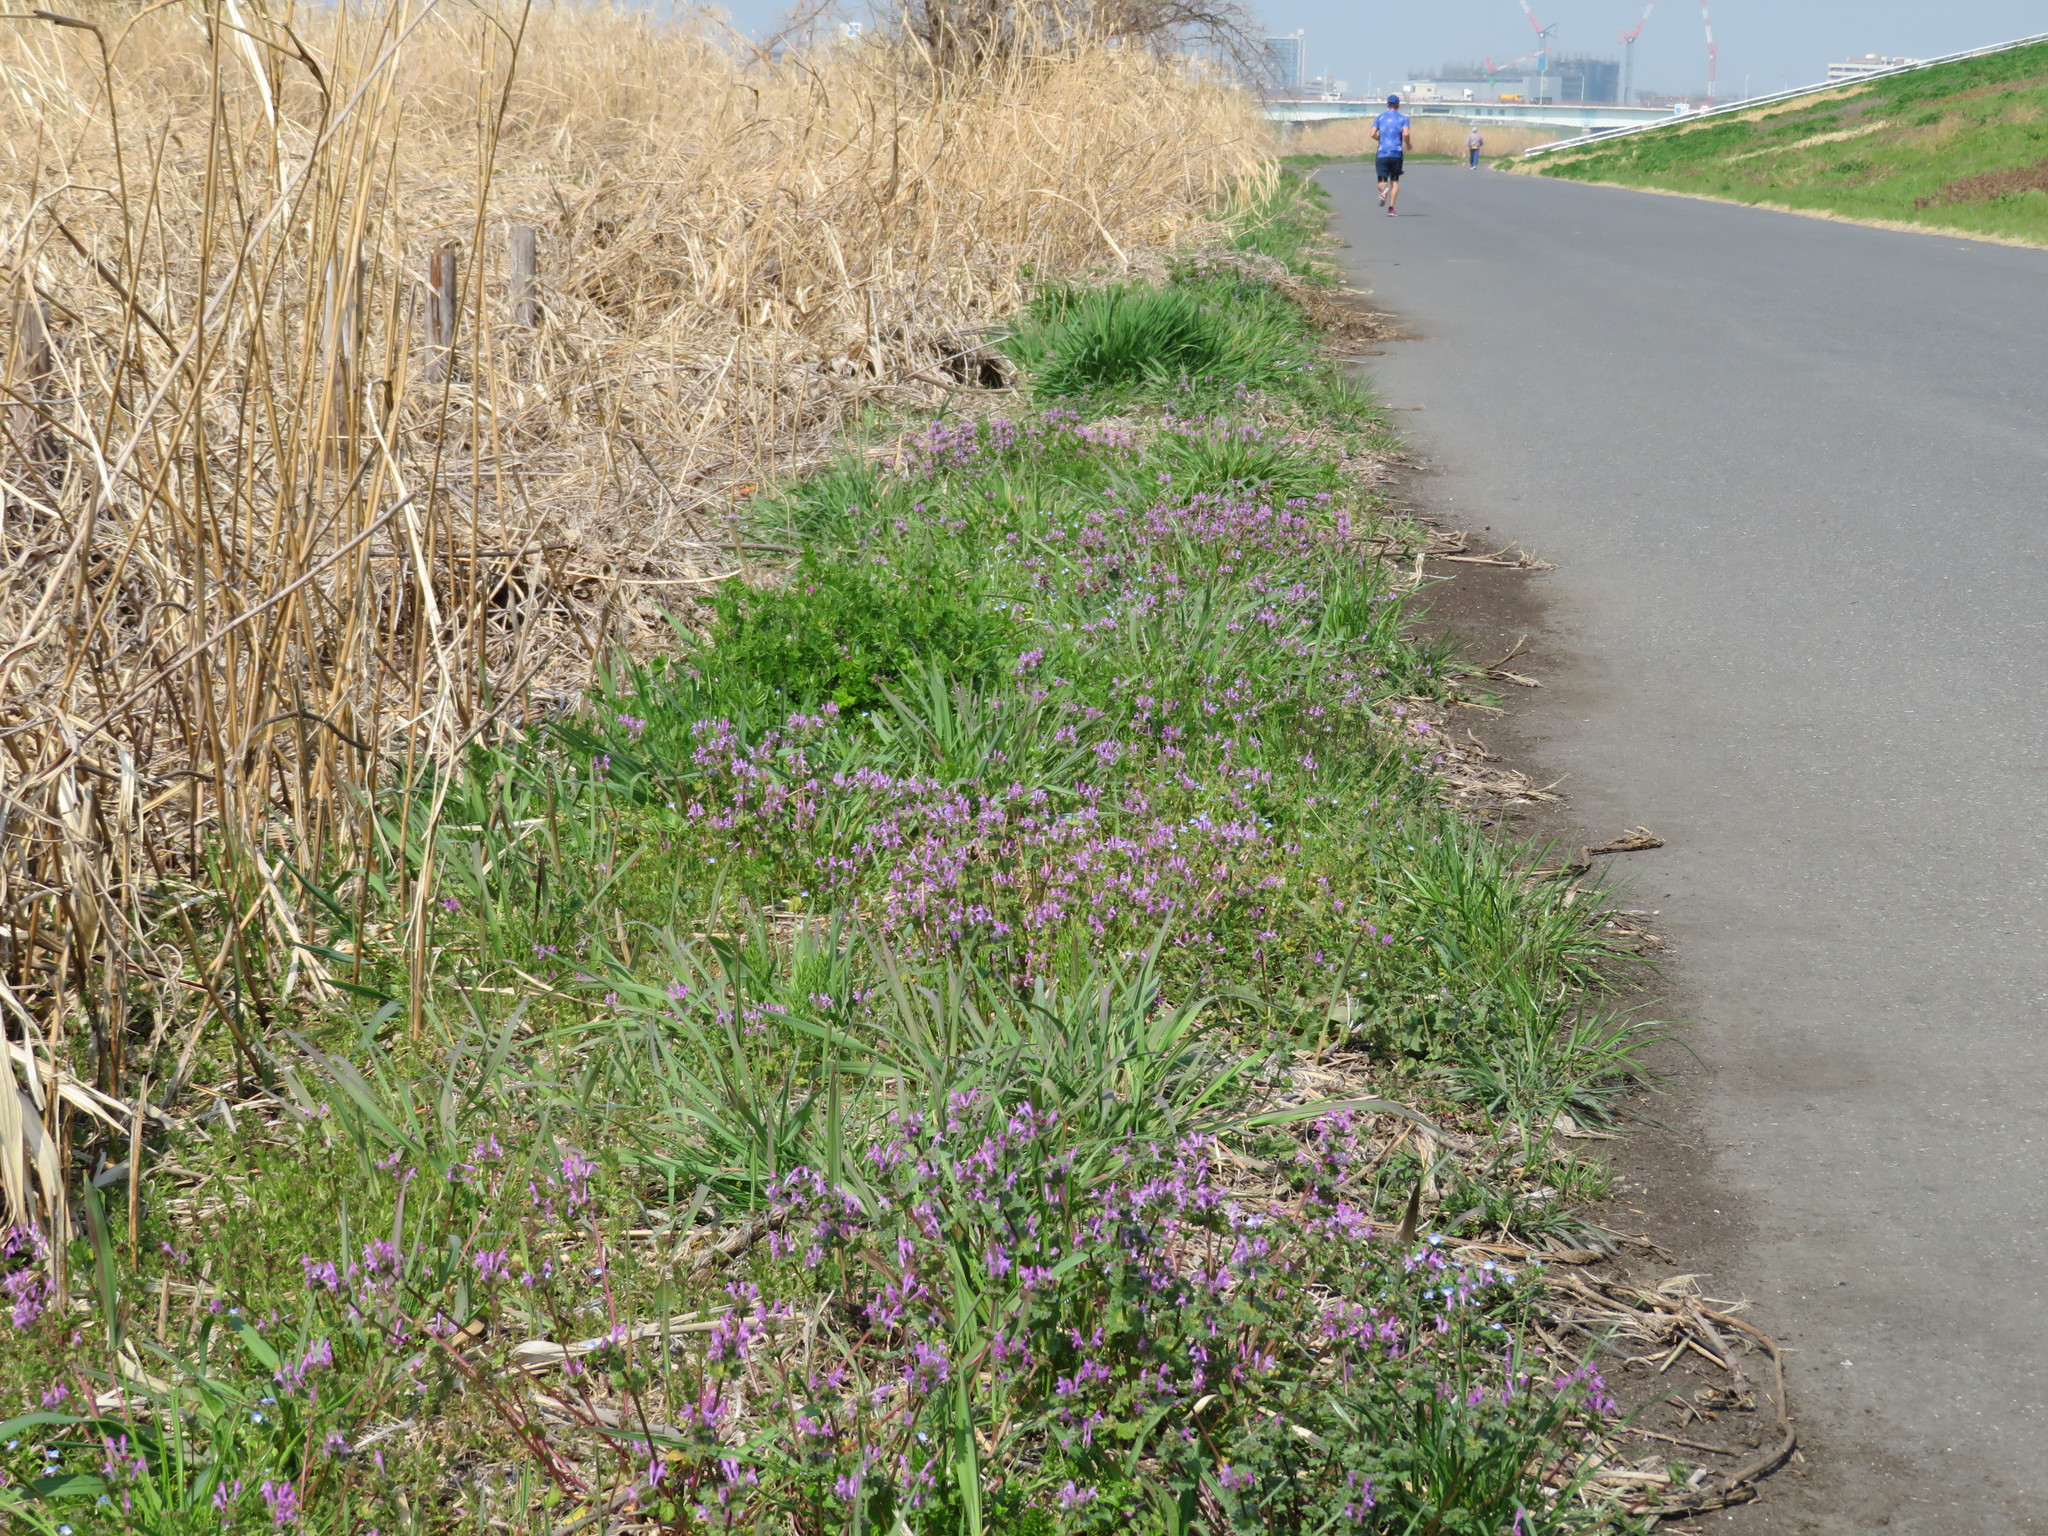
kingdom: Plantae
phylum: Tracheophyta
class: Magnoliopsida
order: Lamiales
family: Lamiaceae
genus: Lamium
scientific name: Lamium amplexicaule
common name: Henbit dead-nettle
